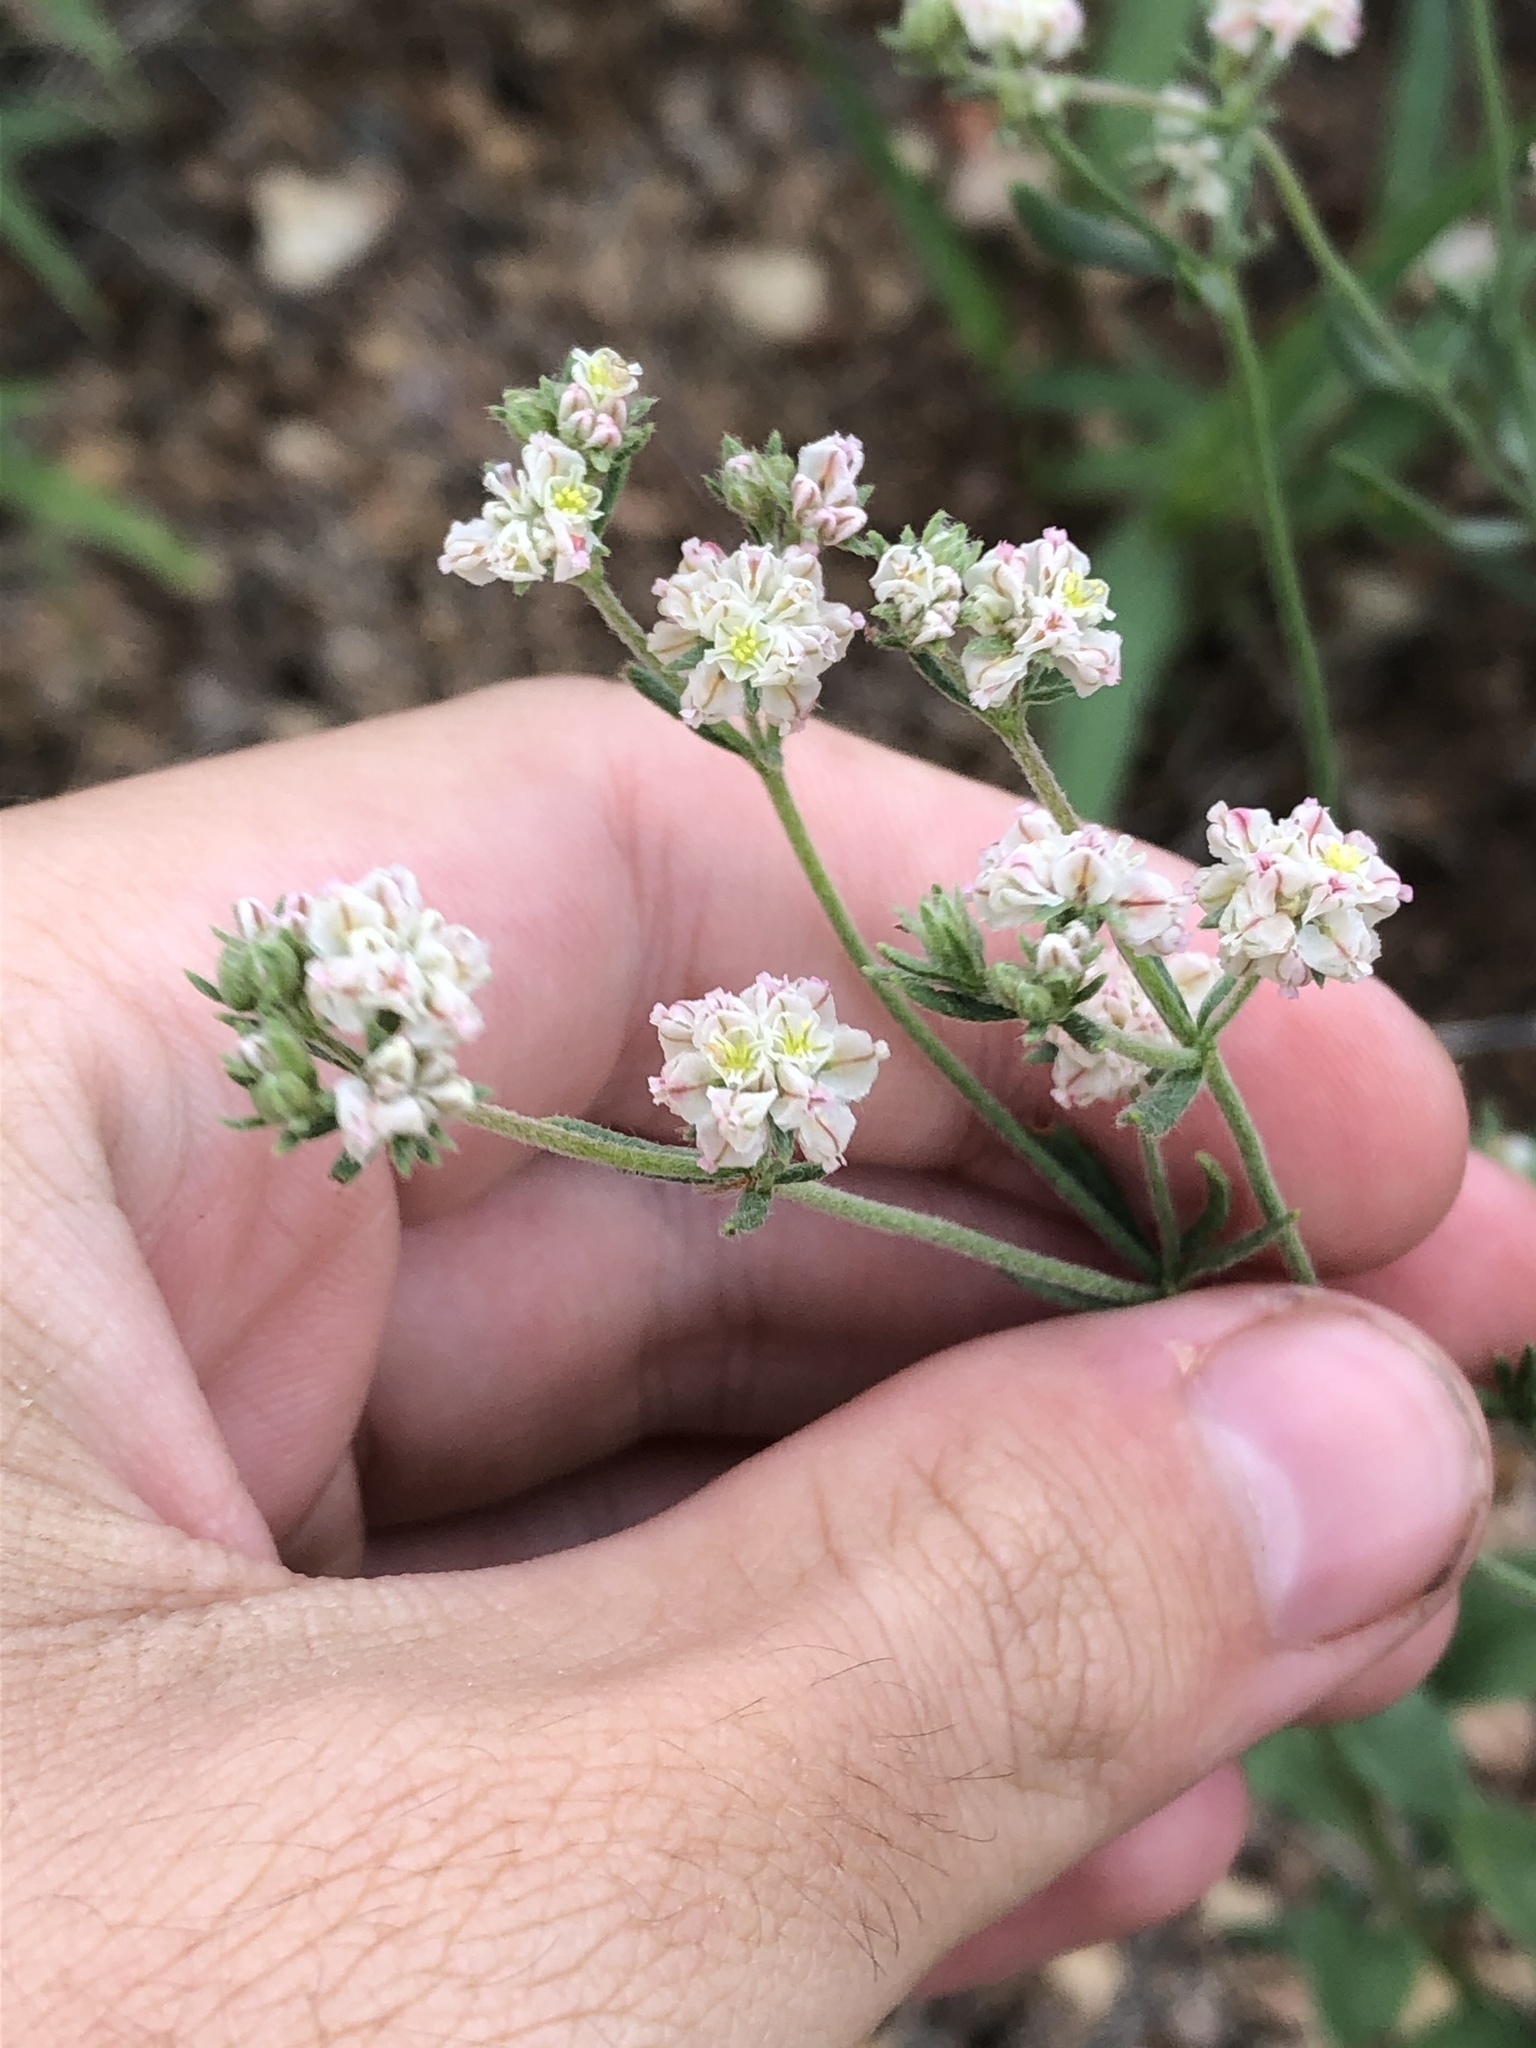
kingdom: Plantae
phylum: Tracheophyta
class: Magnoliopsida
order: Caryophyllales
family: Polygonaceae
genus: Eriogonum
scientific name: Eriogonum abertianum
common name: Abert's wild buckwheat
